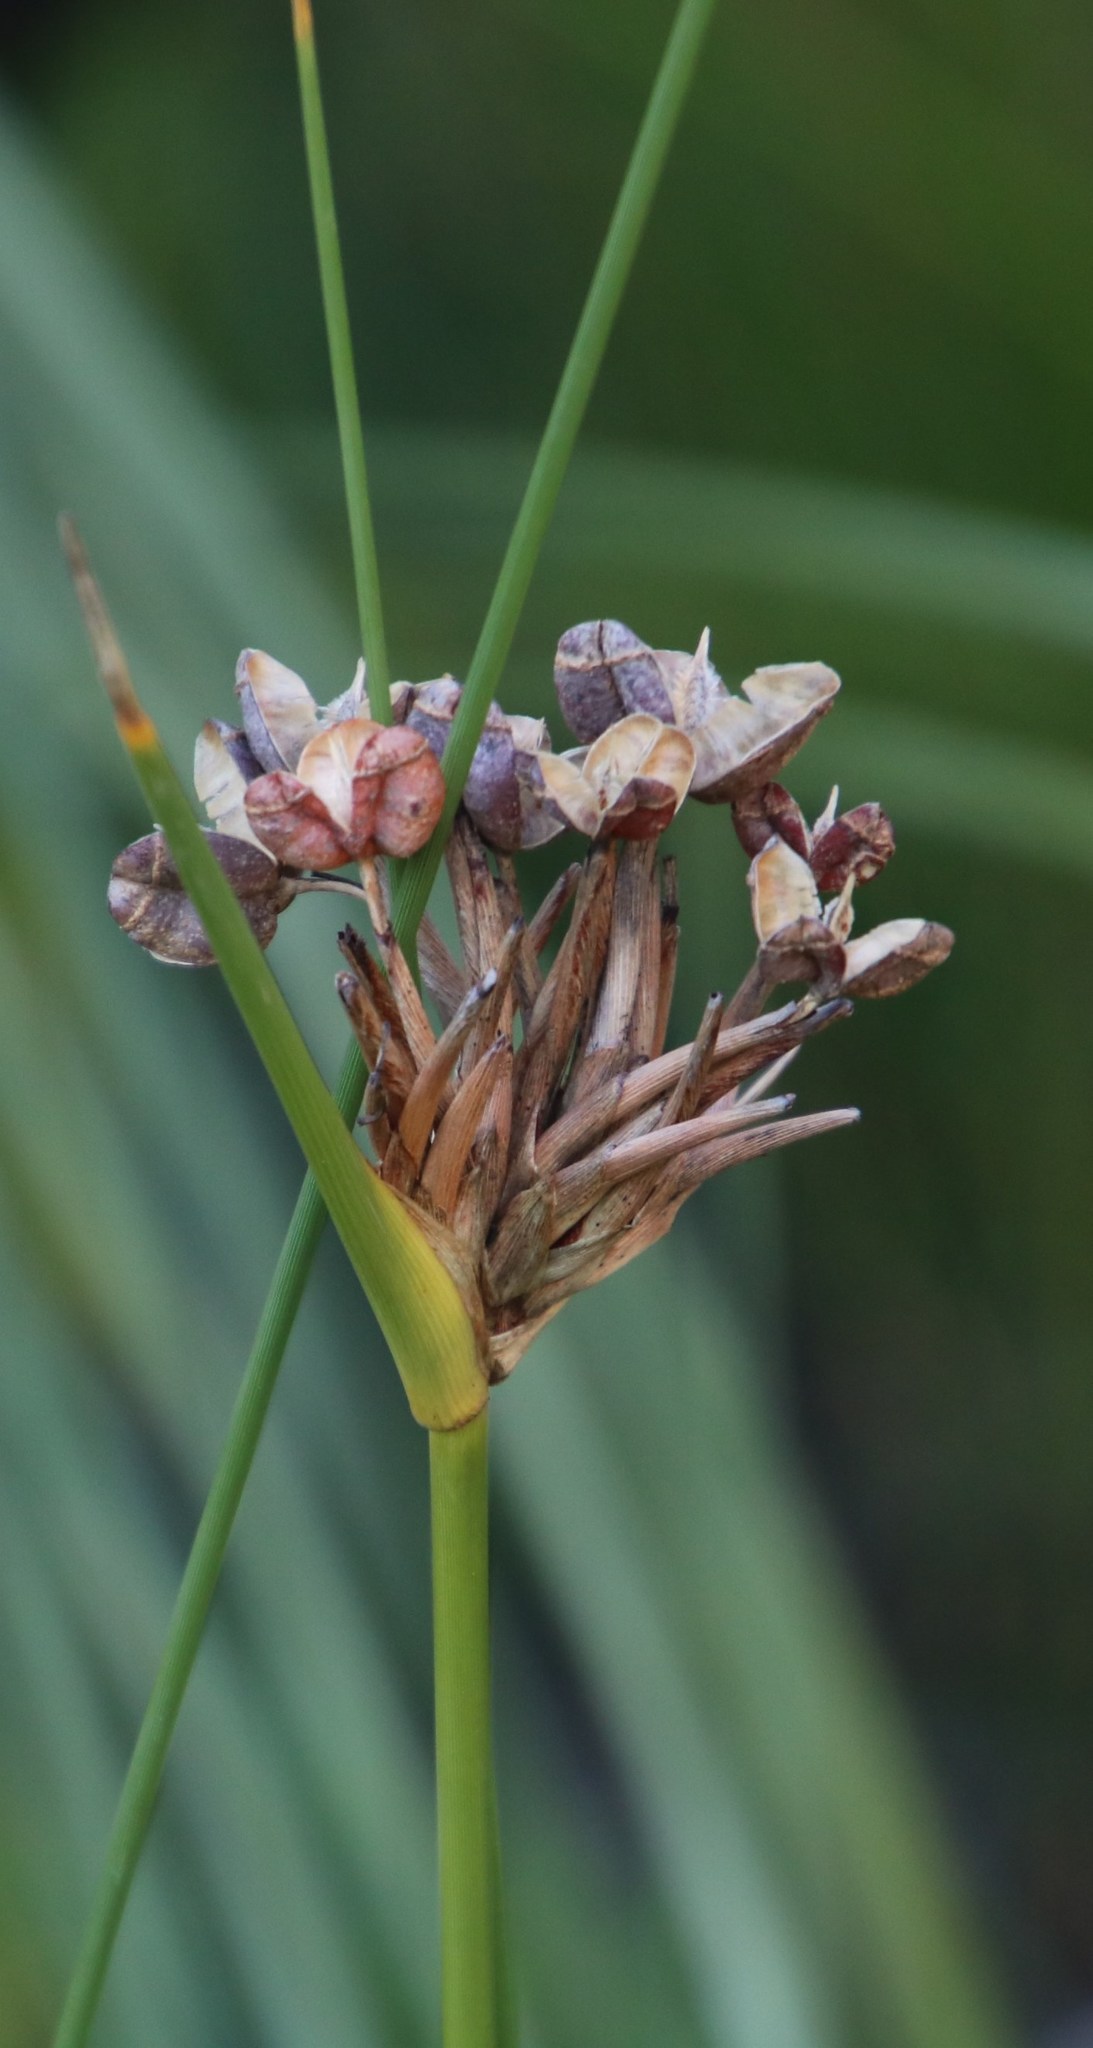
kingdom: Plantae
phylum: Tracheophyta
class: Liliopsida
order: Asparagales
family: Iridaceae
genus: Bobartia
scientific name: Bobartia indica
